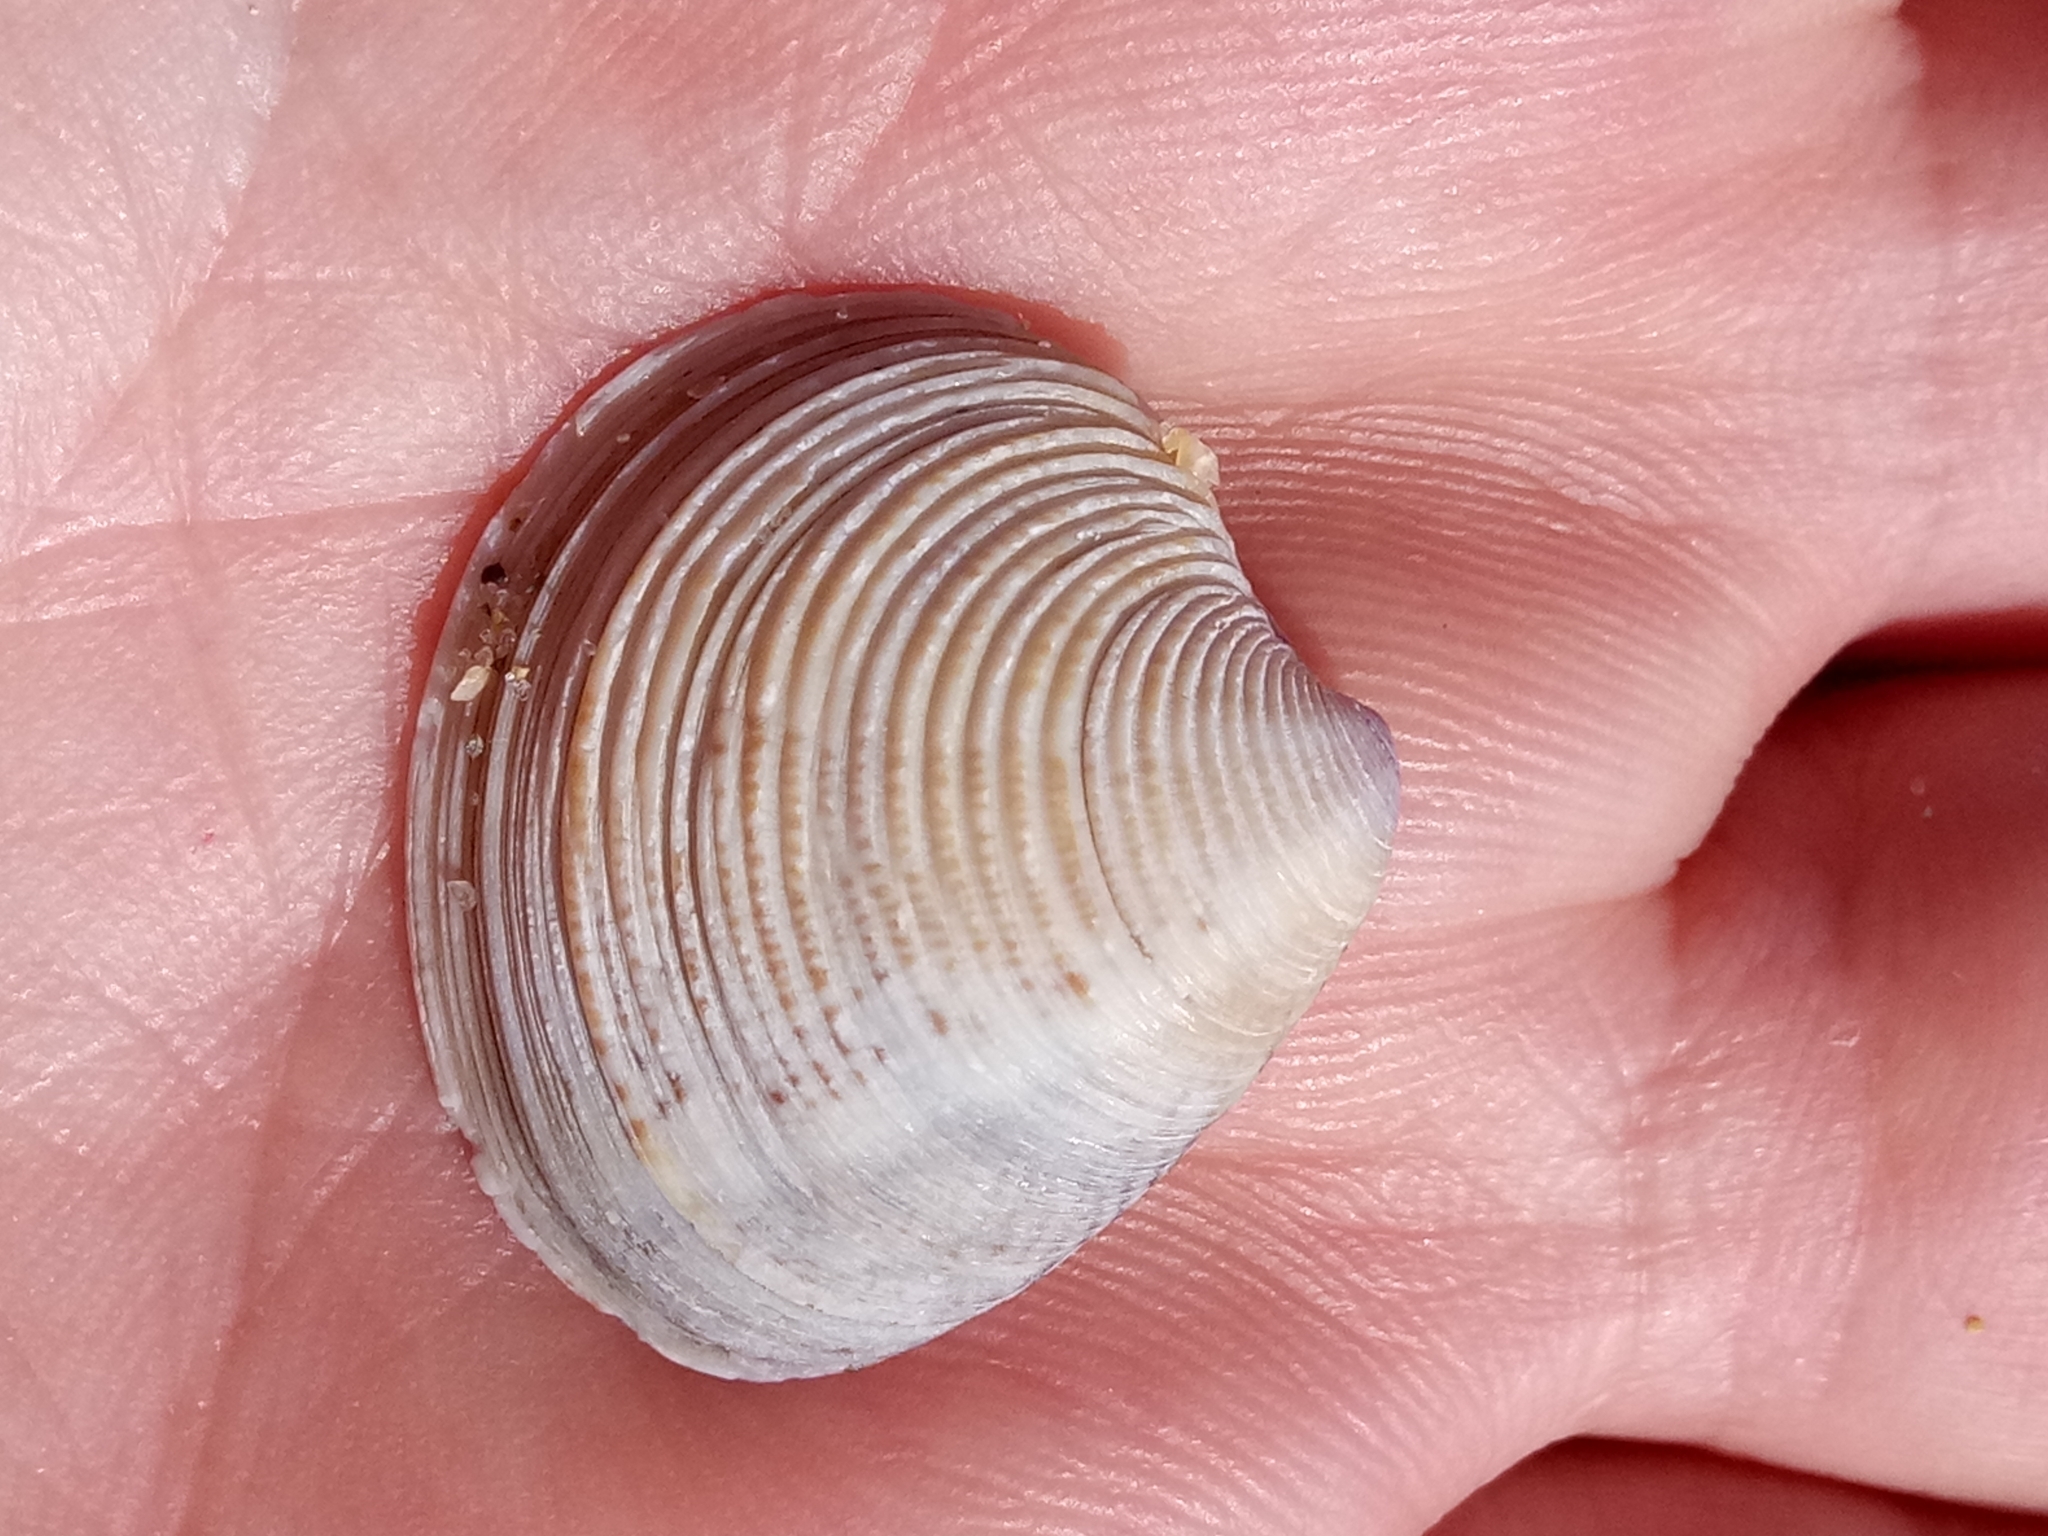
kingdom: Animalia
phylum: Mollusca
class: Bivalvia
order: Venerida
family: Veneridae
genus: Chamelea
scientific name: Chamelea gallina
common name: Chicken venus
